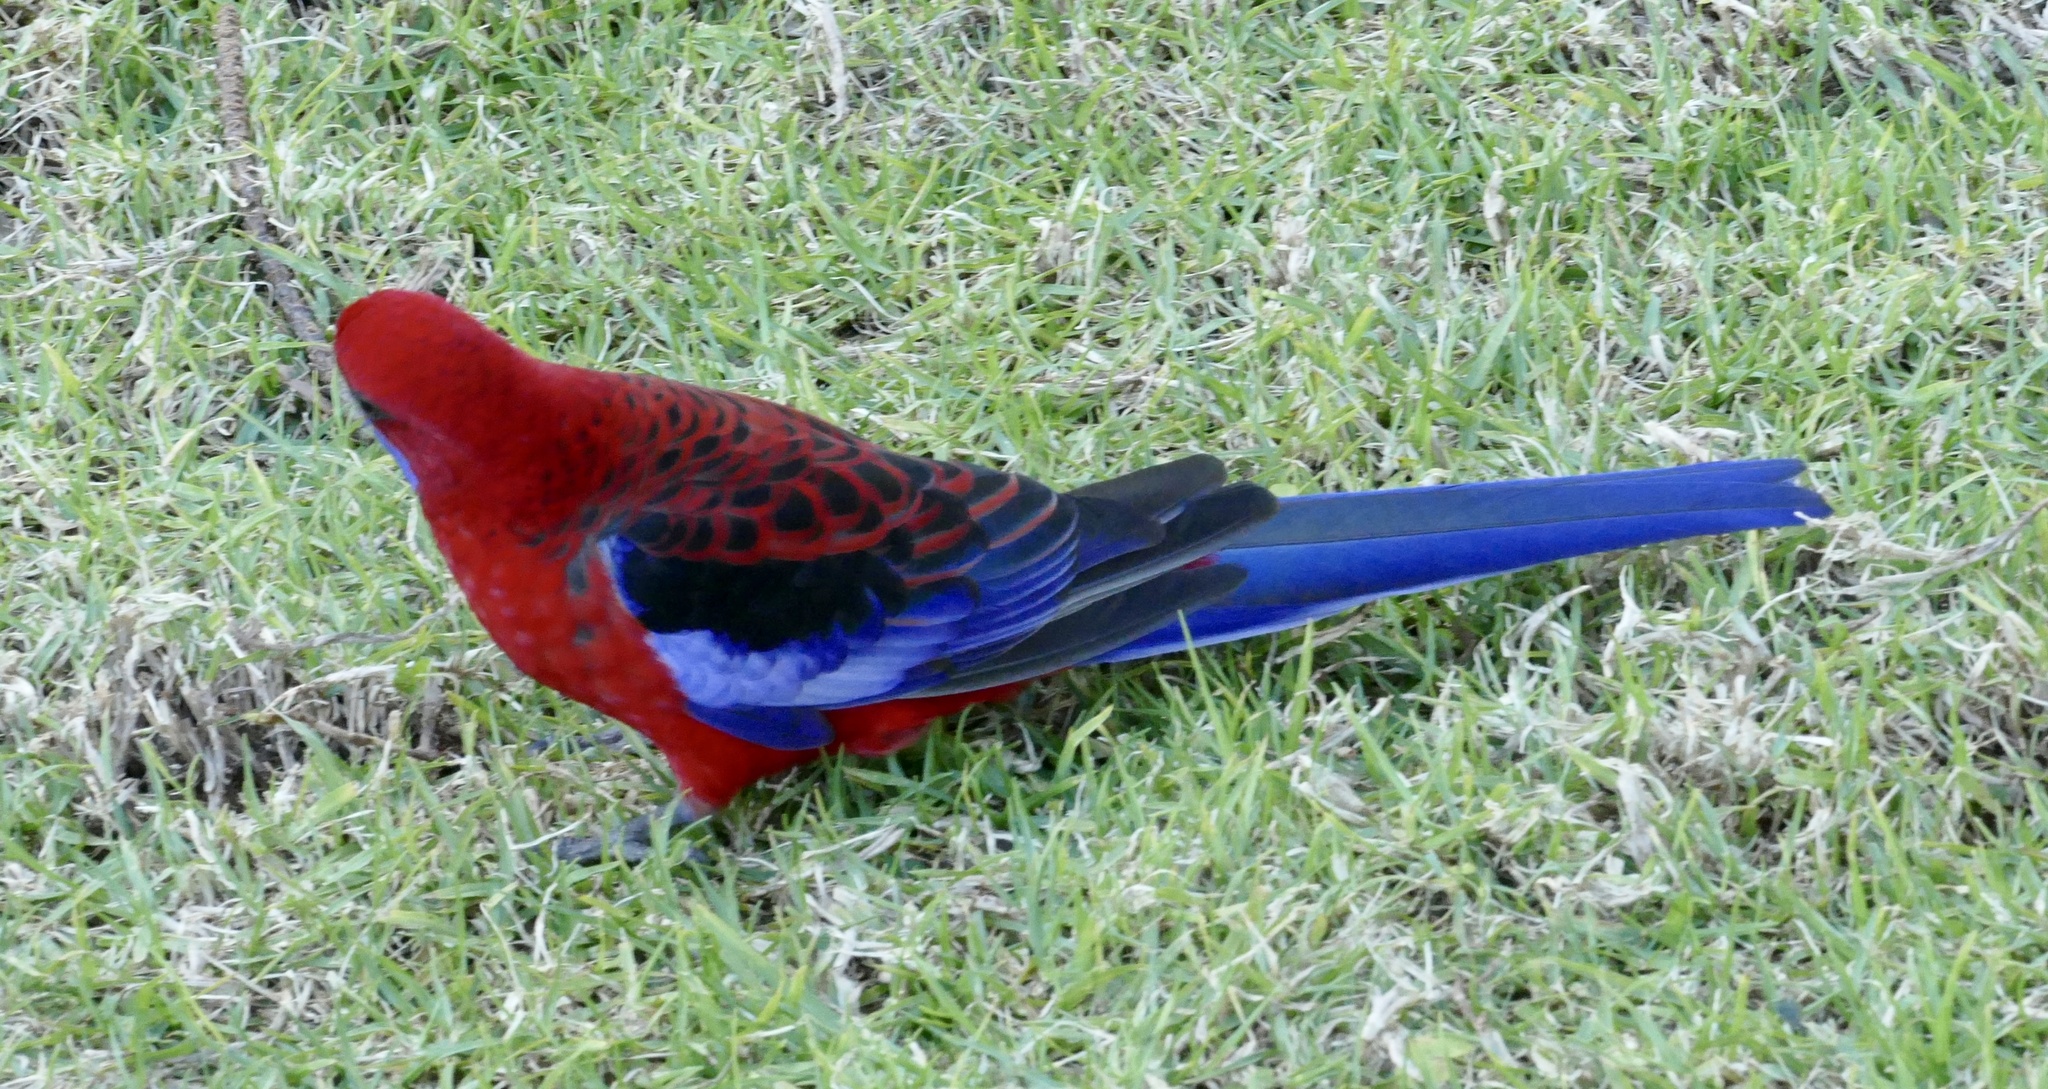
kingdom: Animalia
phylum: Chordata
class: Aves
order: Psittaciformes
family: Psittacidae
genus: Platycercus
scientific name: Platycercus elegans
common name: Crimson rosella
